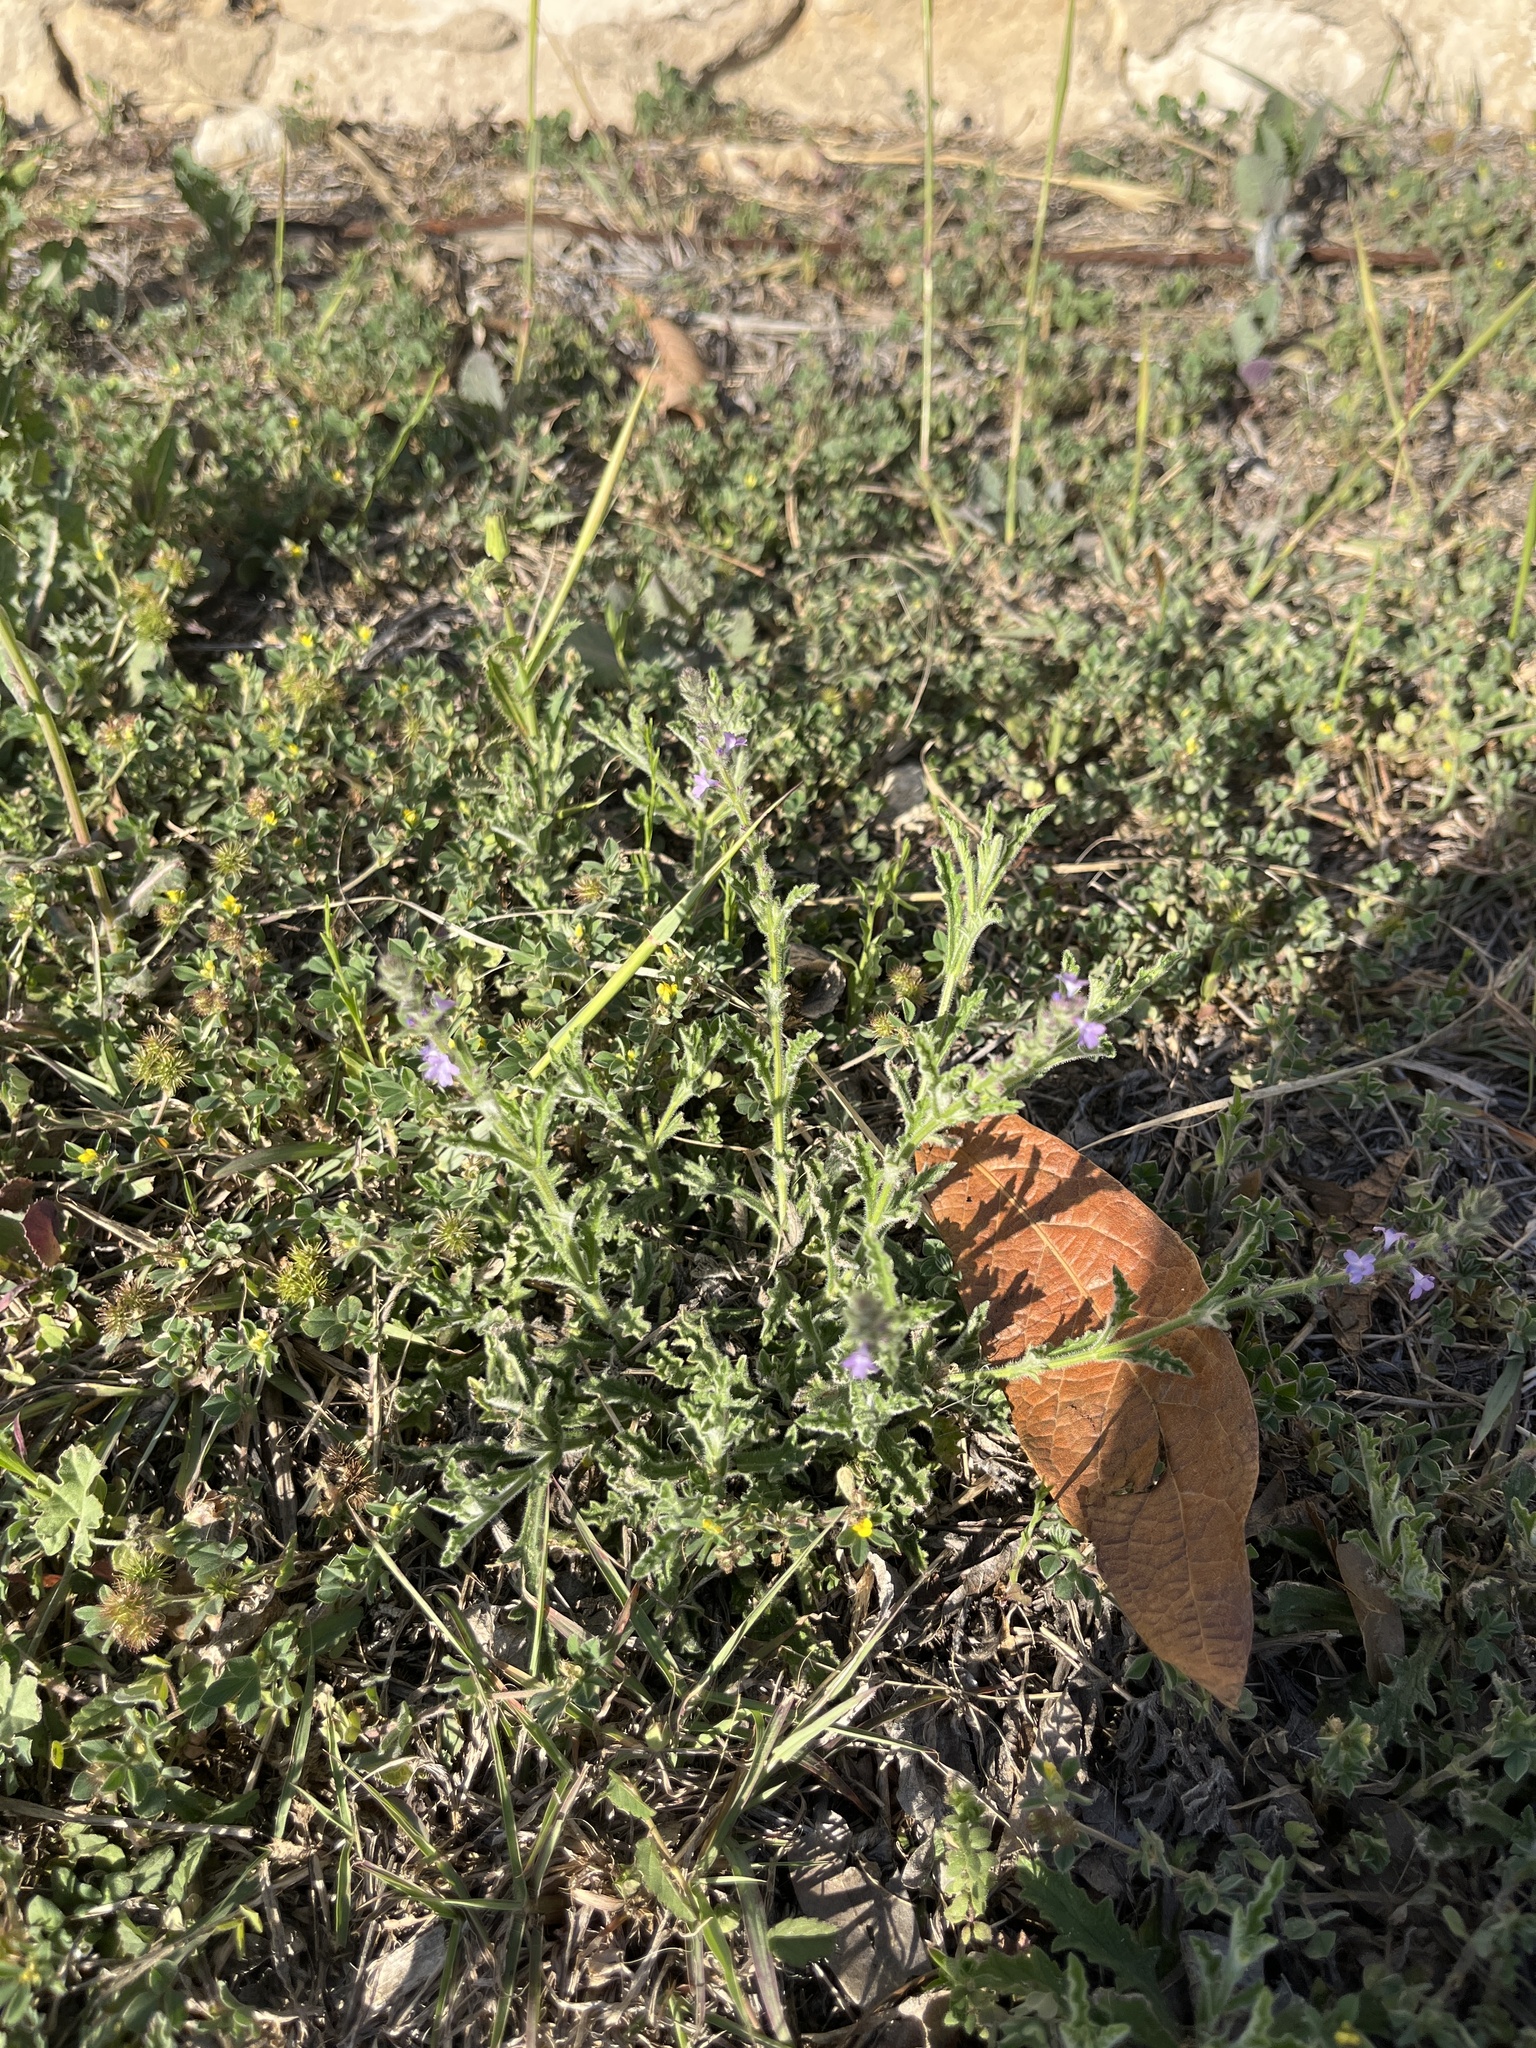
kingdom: Plantae
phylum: Tracheophyta
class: Magnoliopsida
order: Lamiales
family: Verbenaceae
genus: Verbena
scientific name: Verbena canescens
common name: Gray vervain
